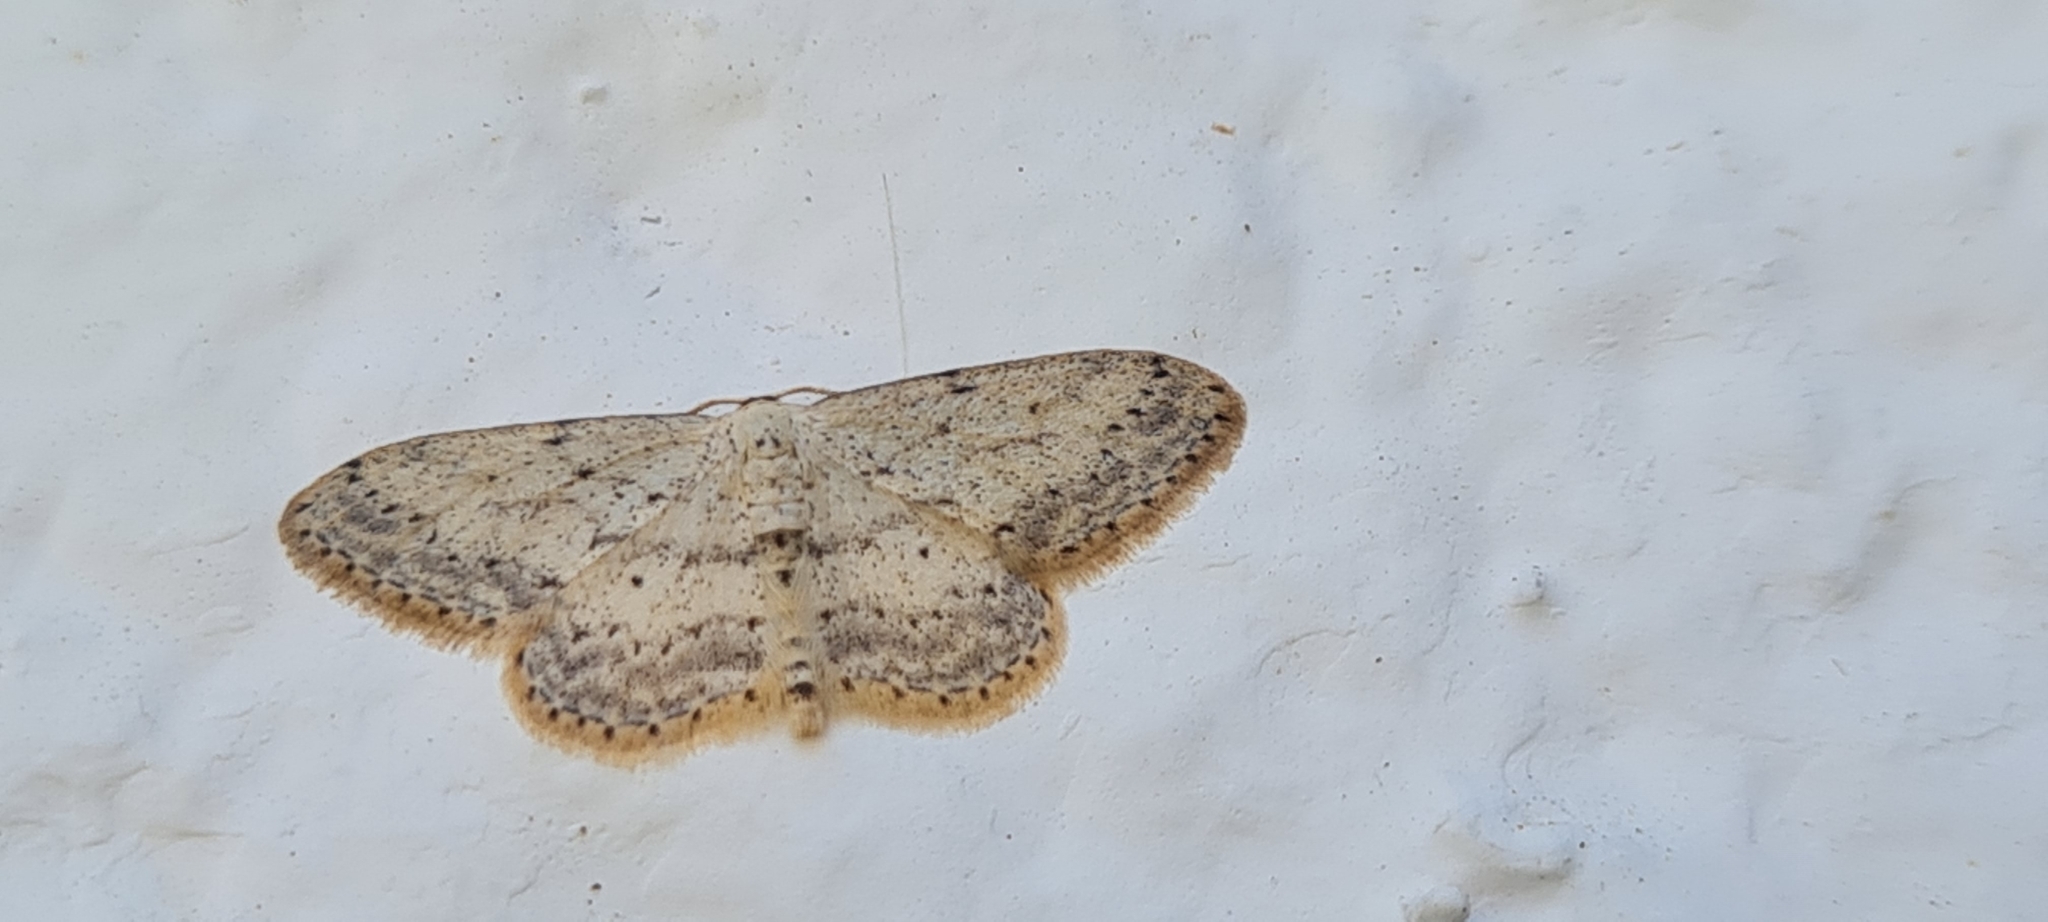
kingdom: Animalia
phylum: Arthropoda
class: Insecta
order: Lepidoptera
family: Geometridae
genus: Idaea
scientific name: Idaea seriata
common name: Small dusty wave
